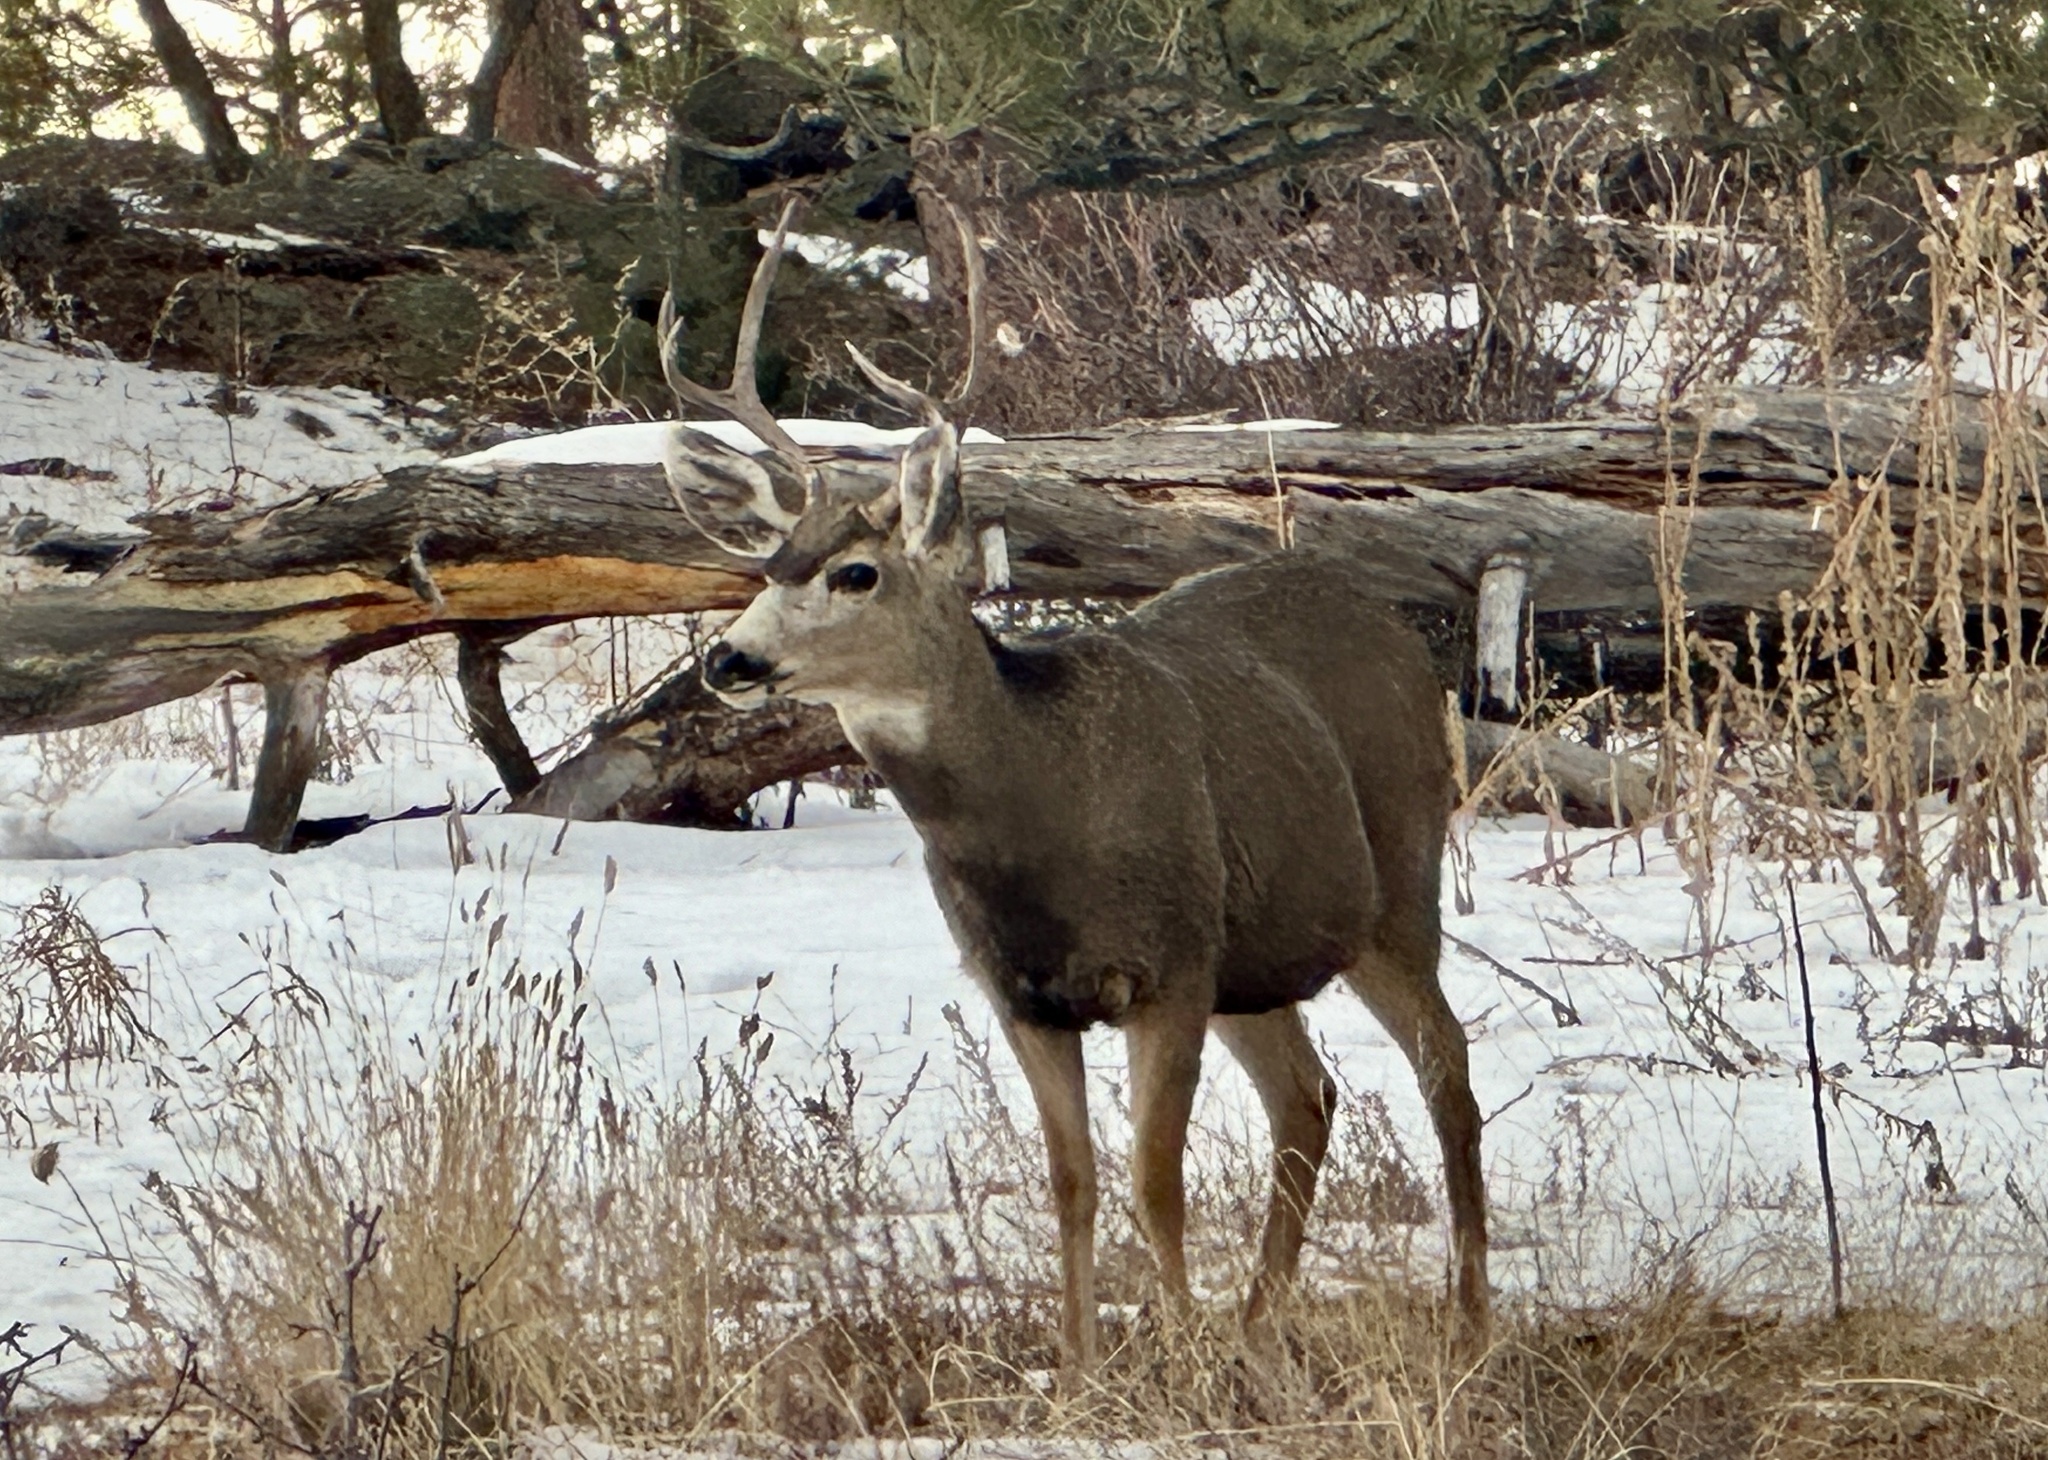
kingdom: Animalia
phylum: Chordata
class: Mammalia
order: Artiodactyla
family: Cervidae
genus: Odocoileus
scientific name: Odocoileus hemionus
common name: Mule deer
